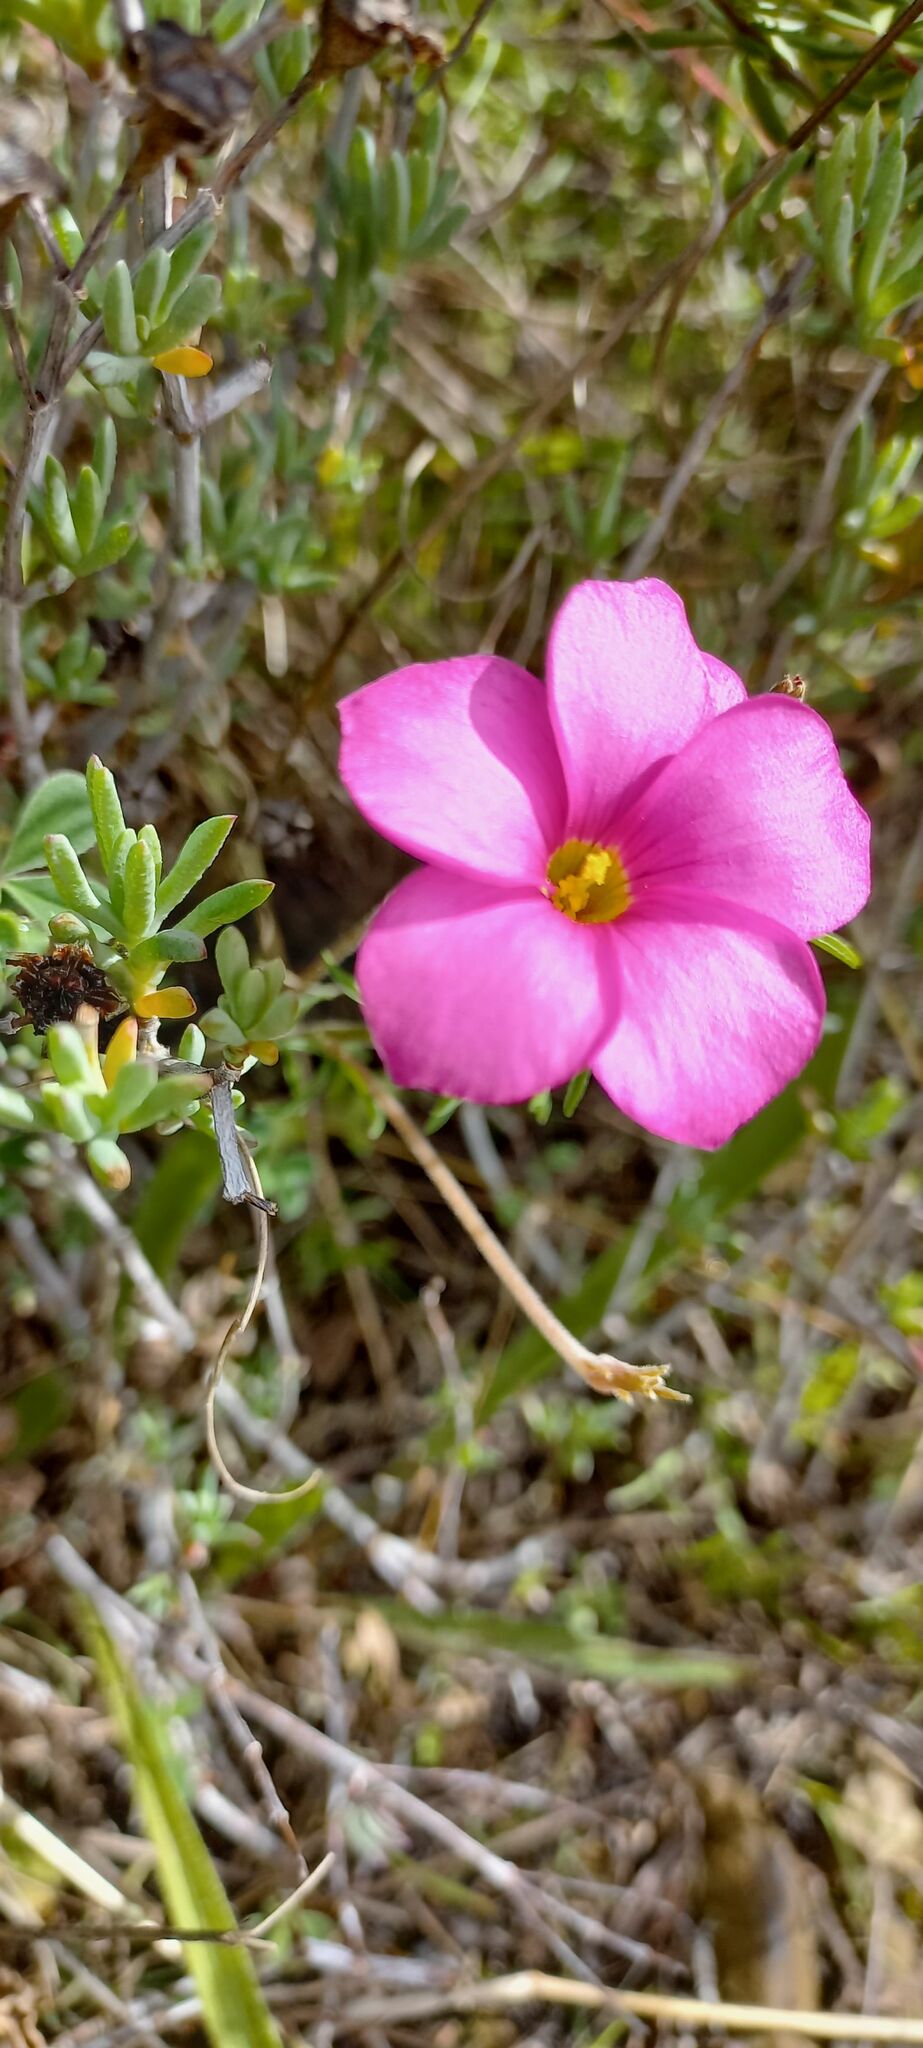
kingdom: Plantae
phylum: Tracheophyta
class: Magnoliopsida
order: Oxalidales
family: Oxalidaceae
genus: Oxalis
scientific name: Oxalis hirta
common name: Tropical woodsorrel
